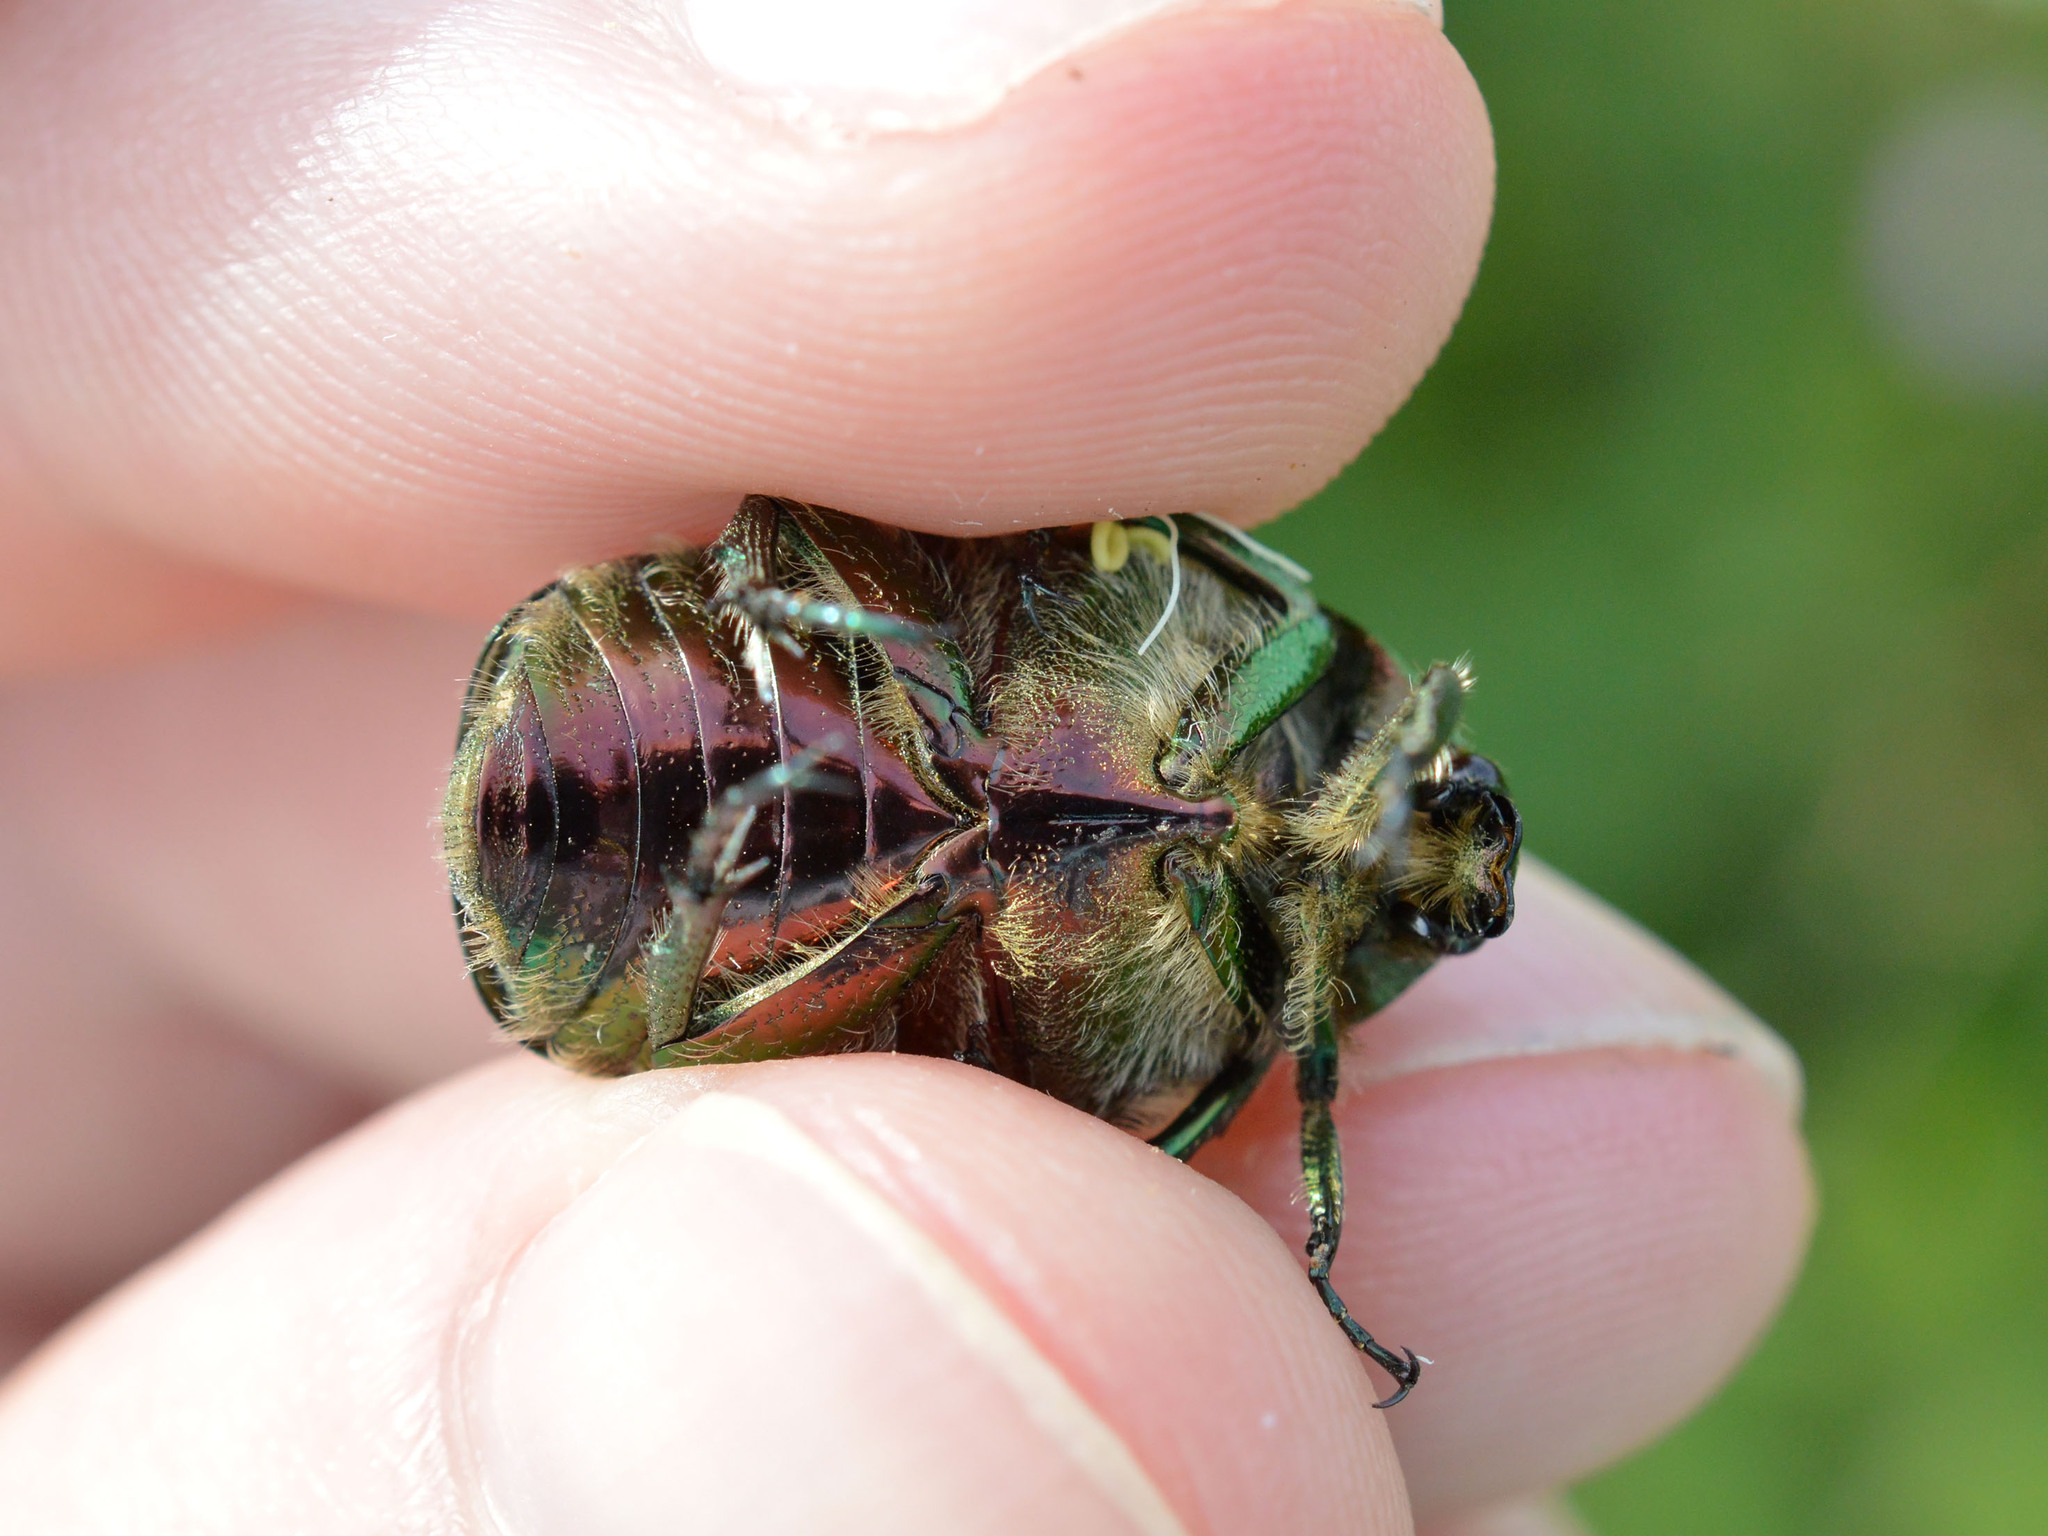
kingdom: Animalia
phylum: Arthropoda
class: Insecta
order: Coleoptera
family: Scarabaeidae
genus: Cetonia
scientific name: Cetonia aurata
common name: Rose chafer
